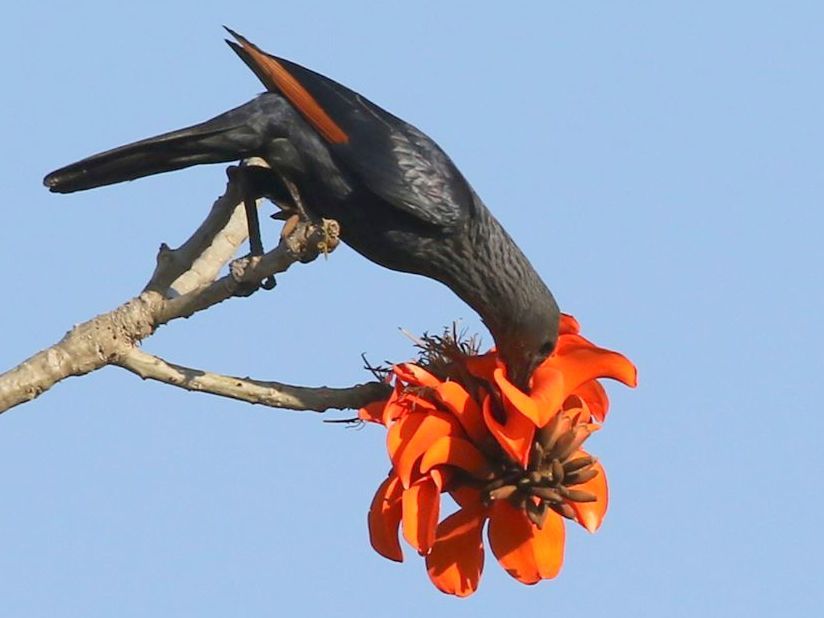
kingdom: Animalia
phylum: Chordata
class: Aves
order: Passeriformes
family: Sturnidae
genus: Onychognathus
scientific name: Onychognathus morio
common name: Red-winged starling
